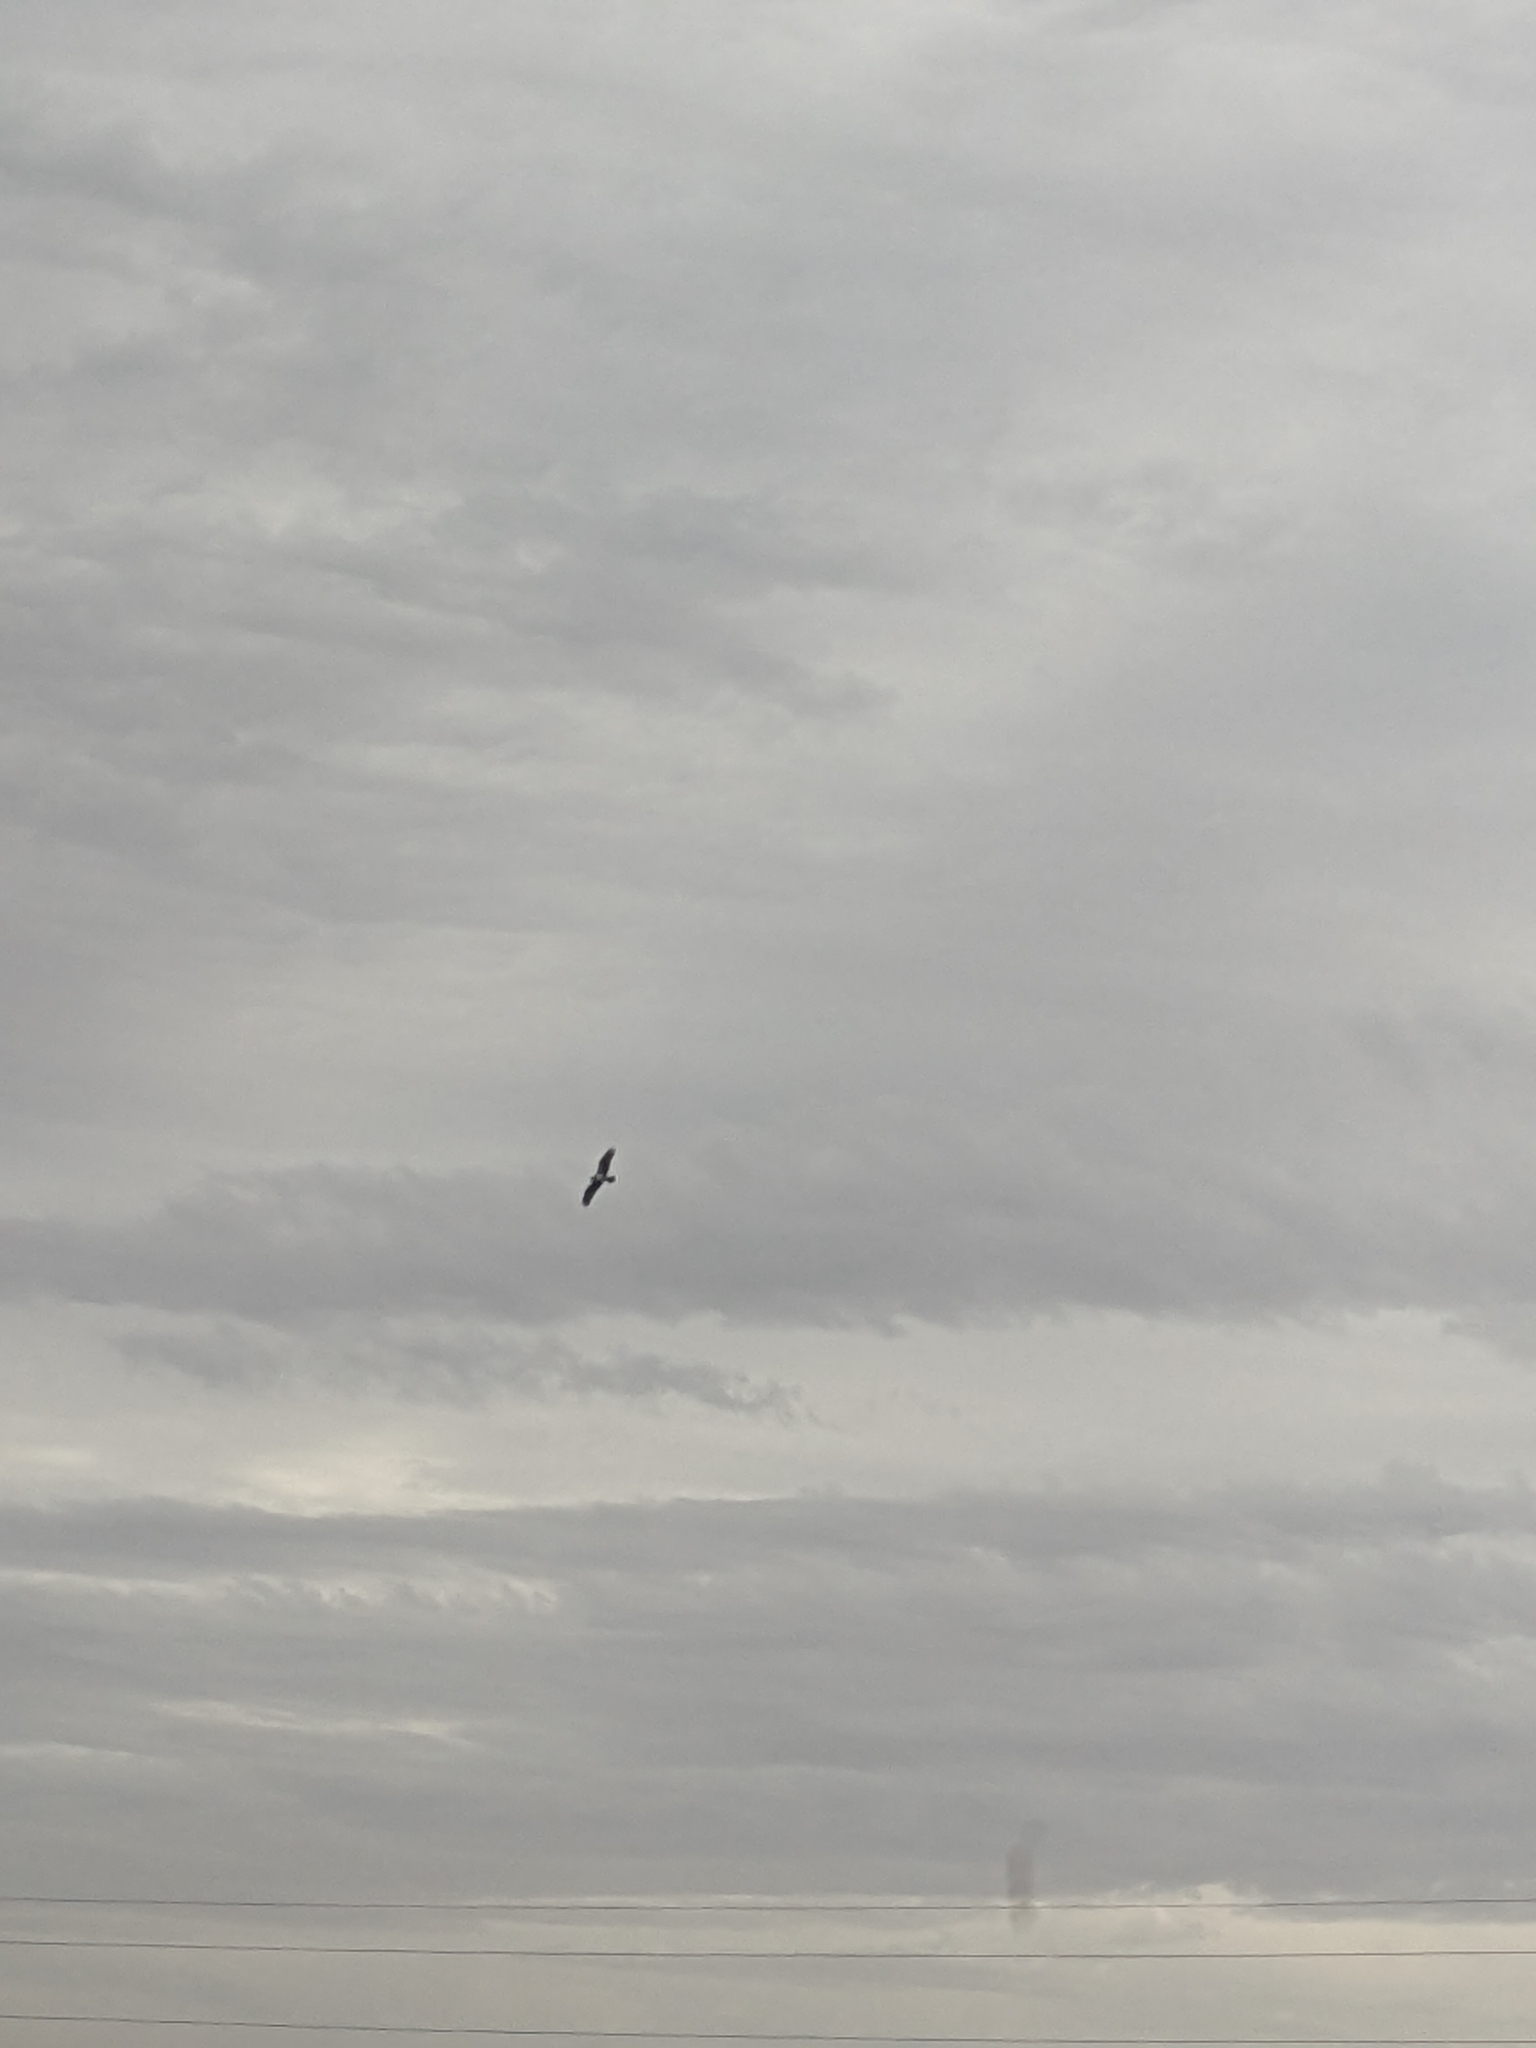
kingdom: Animalia
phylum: Chordata
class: Aves
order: Accipitriformes
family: Pandionidae
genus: Pandion
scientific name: Pandion haliaetus
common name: Osprey
